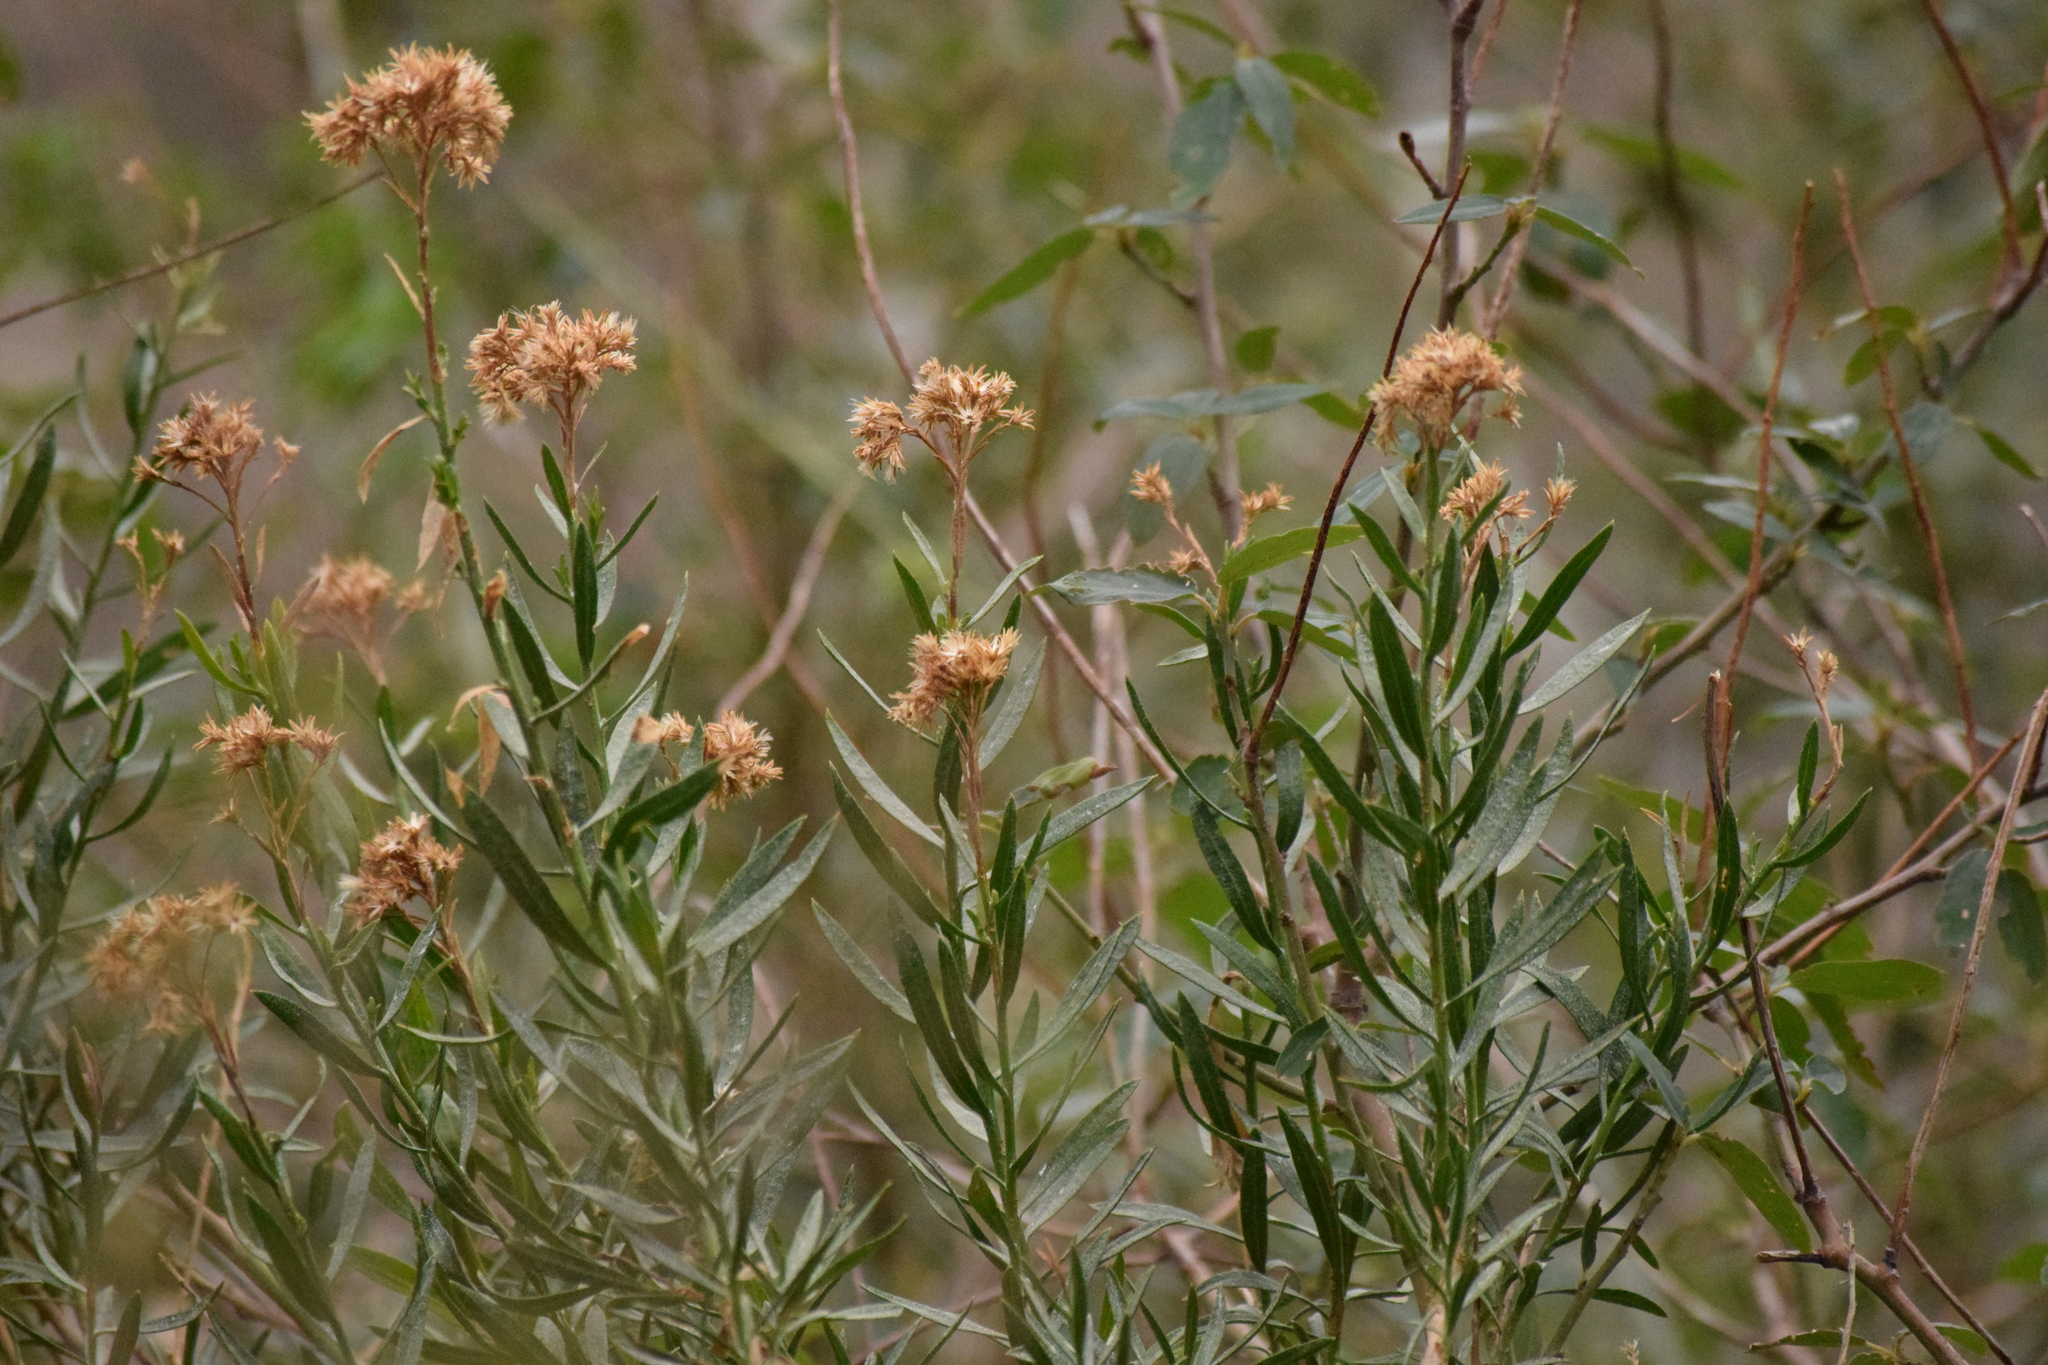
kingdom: Plantae
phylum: Tracheophyta
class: Magnoliopsida
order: Asterales
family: Asteraceae
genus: Baccharis
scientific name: Baccharis salicifolia
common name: Sticky baccharis
